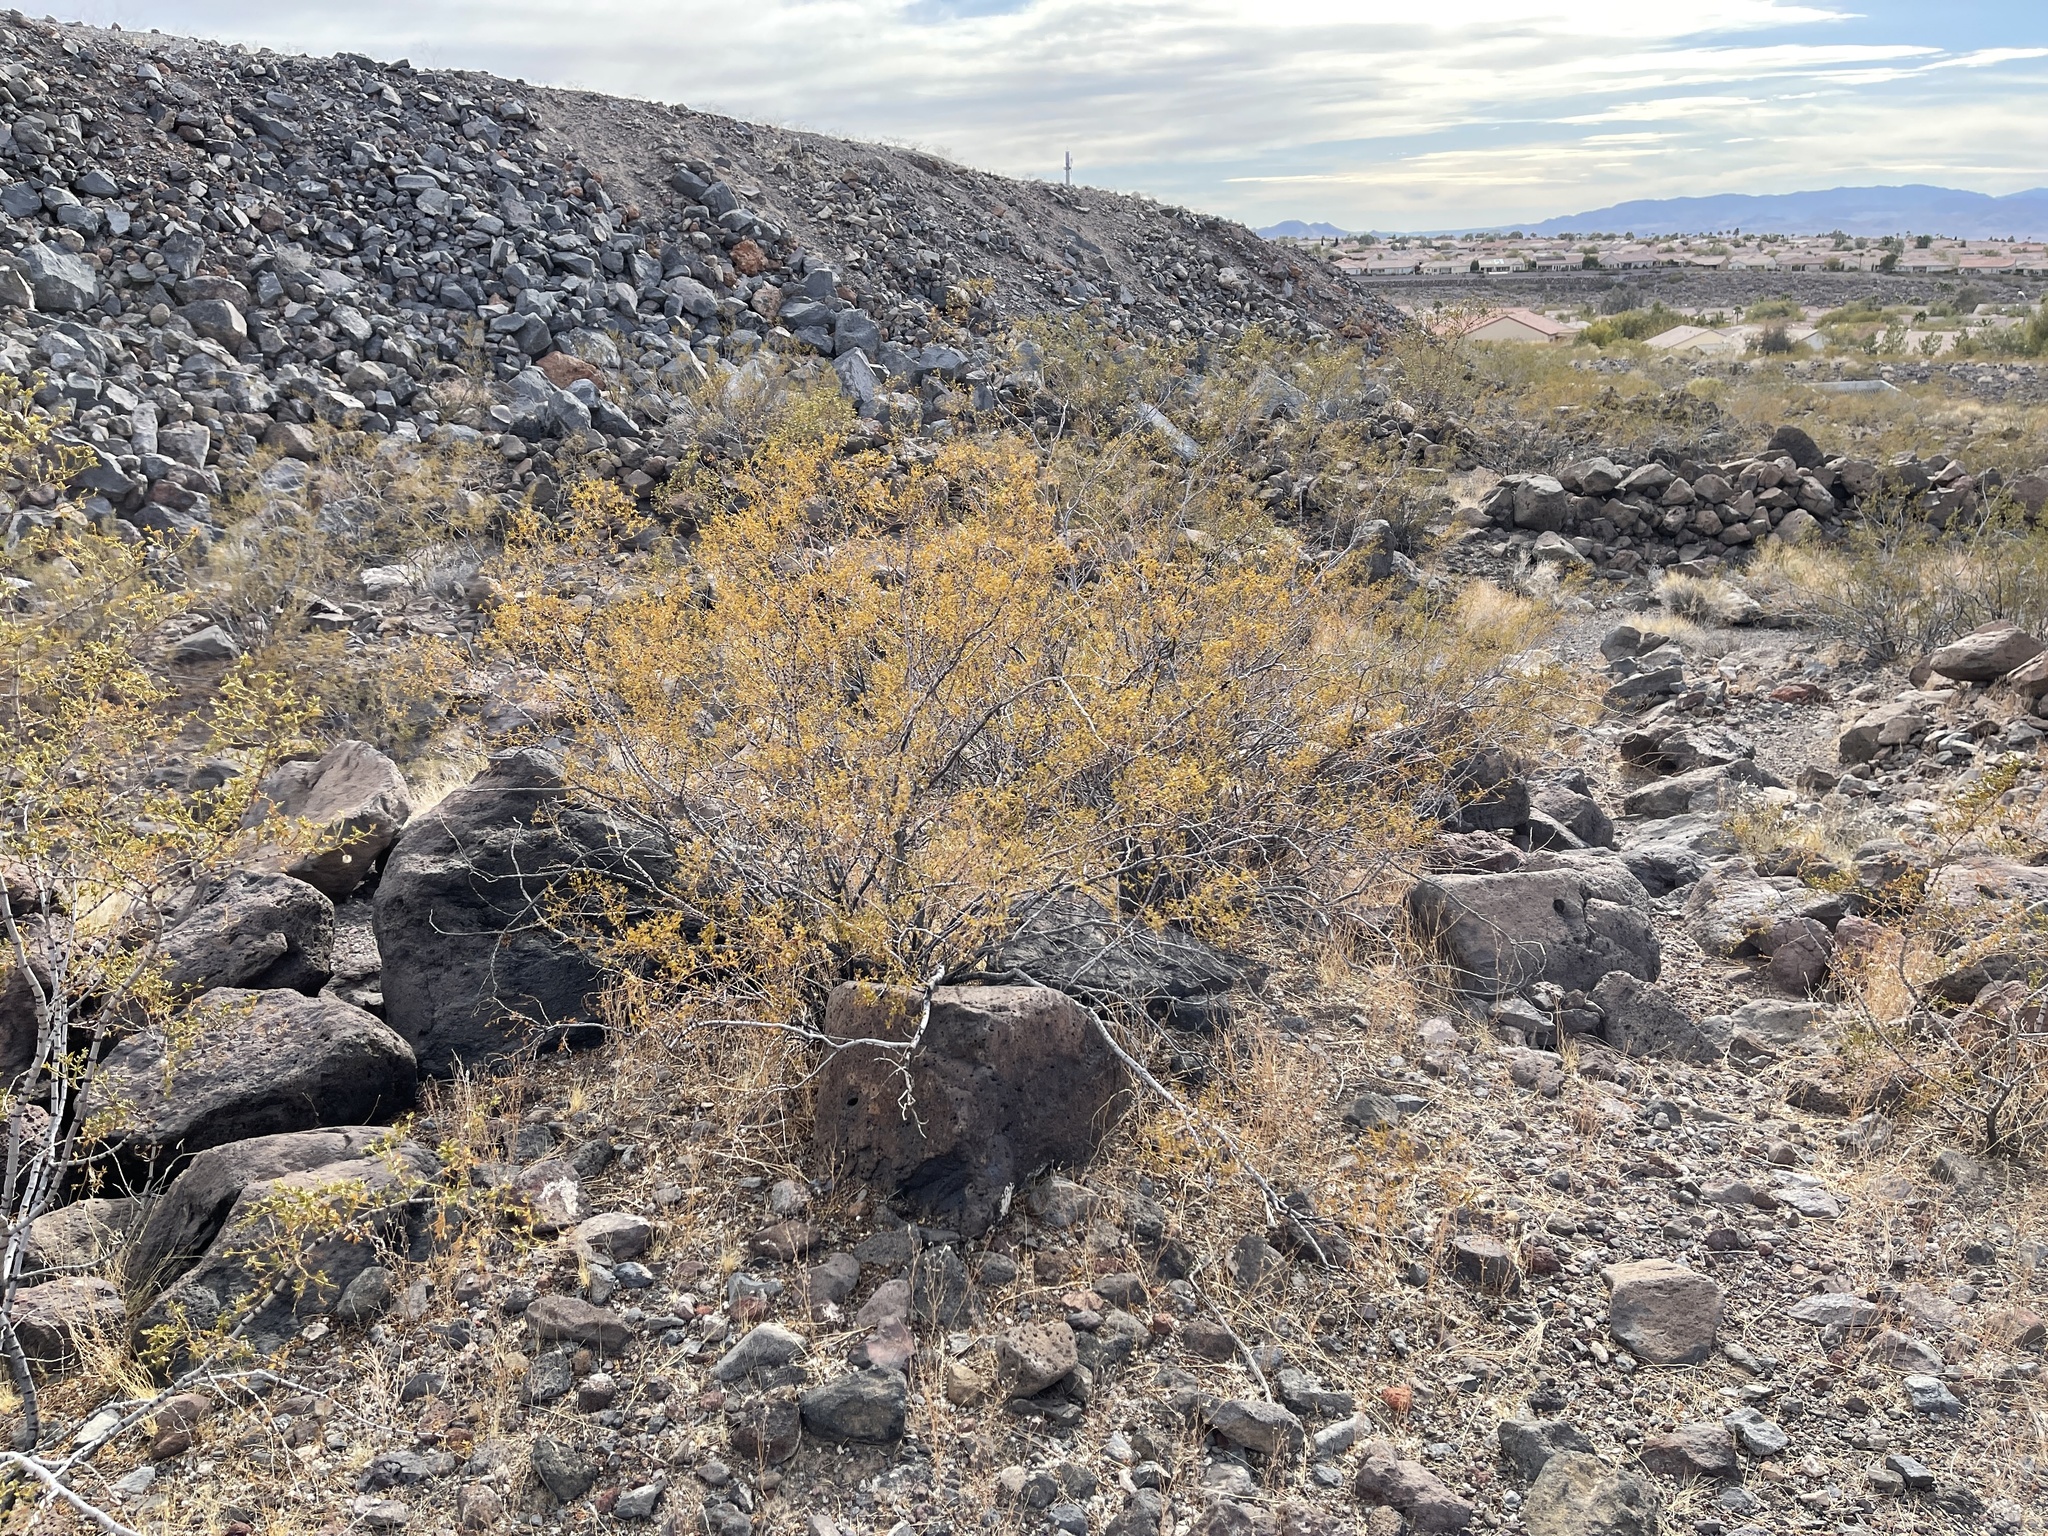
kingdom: Plantae
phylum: Tracheophyta
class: Magnoliopsida
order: Zygophyllales
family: Zygophyllaceae
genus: Larrea
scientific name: Larrea tridentata
